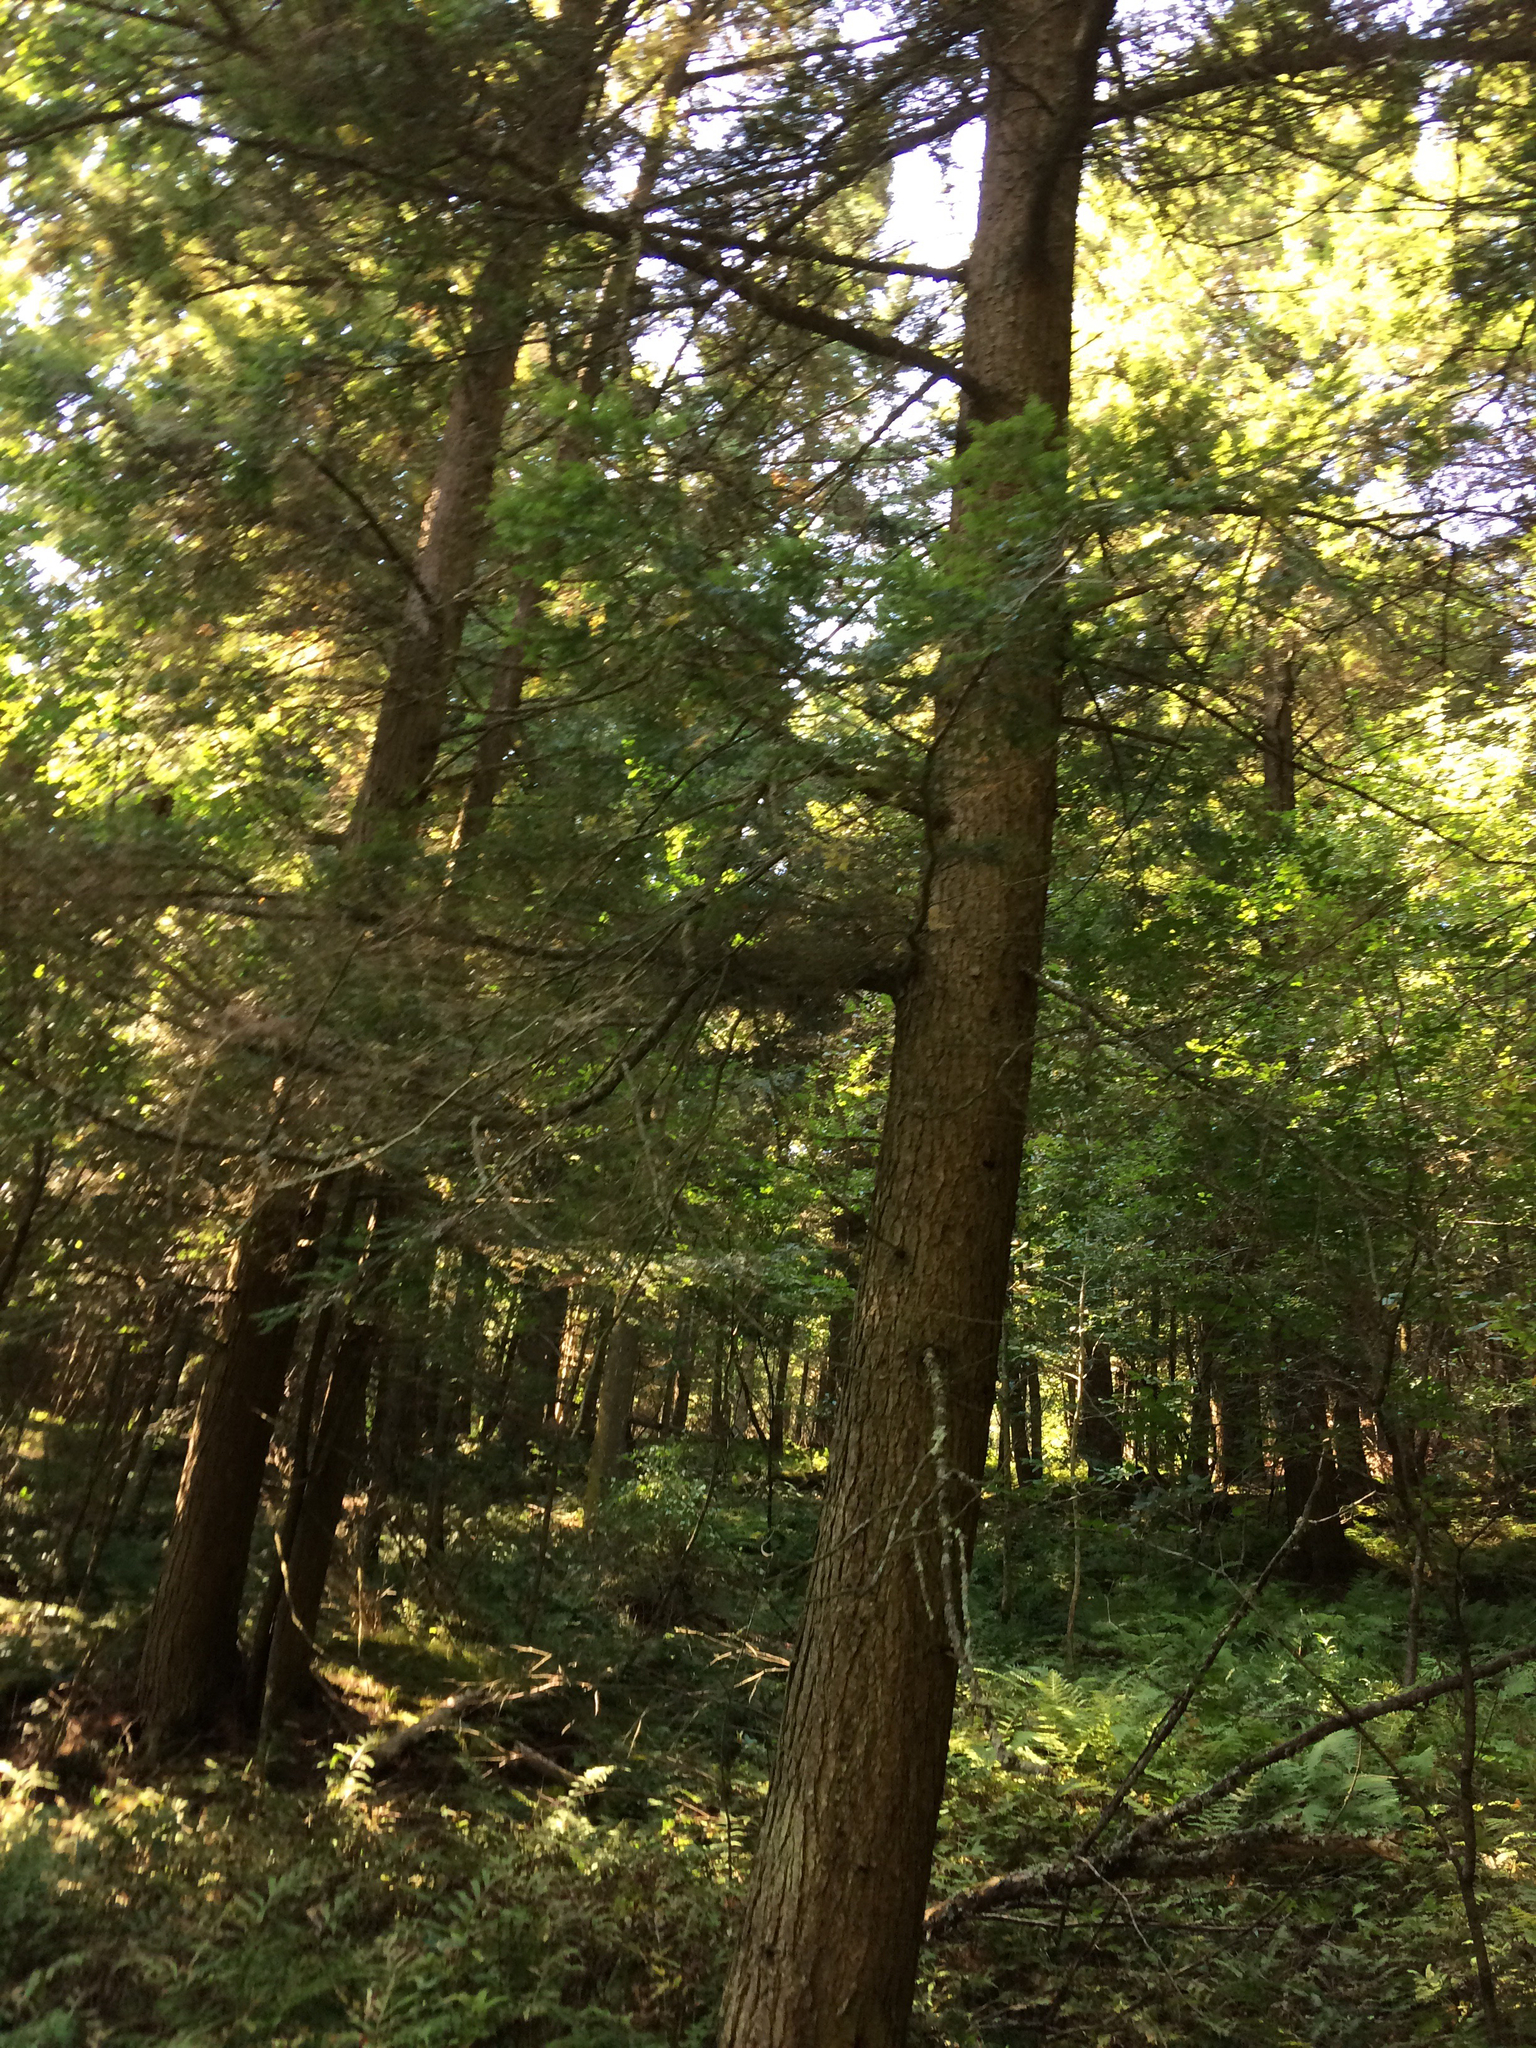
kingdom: Plantae
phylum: Tracheophyta
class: Pinopsida
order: Pinales
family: Pinaceae
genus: Tsuga
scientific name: Tsuga canadensis
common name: Eastern hemlock
